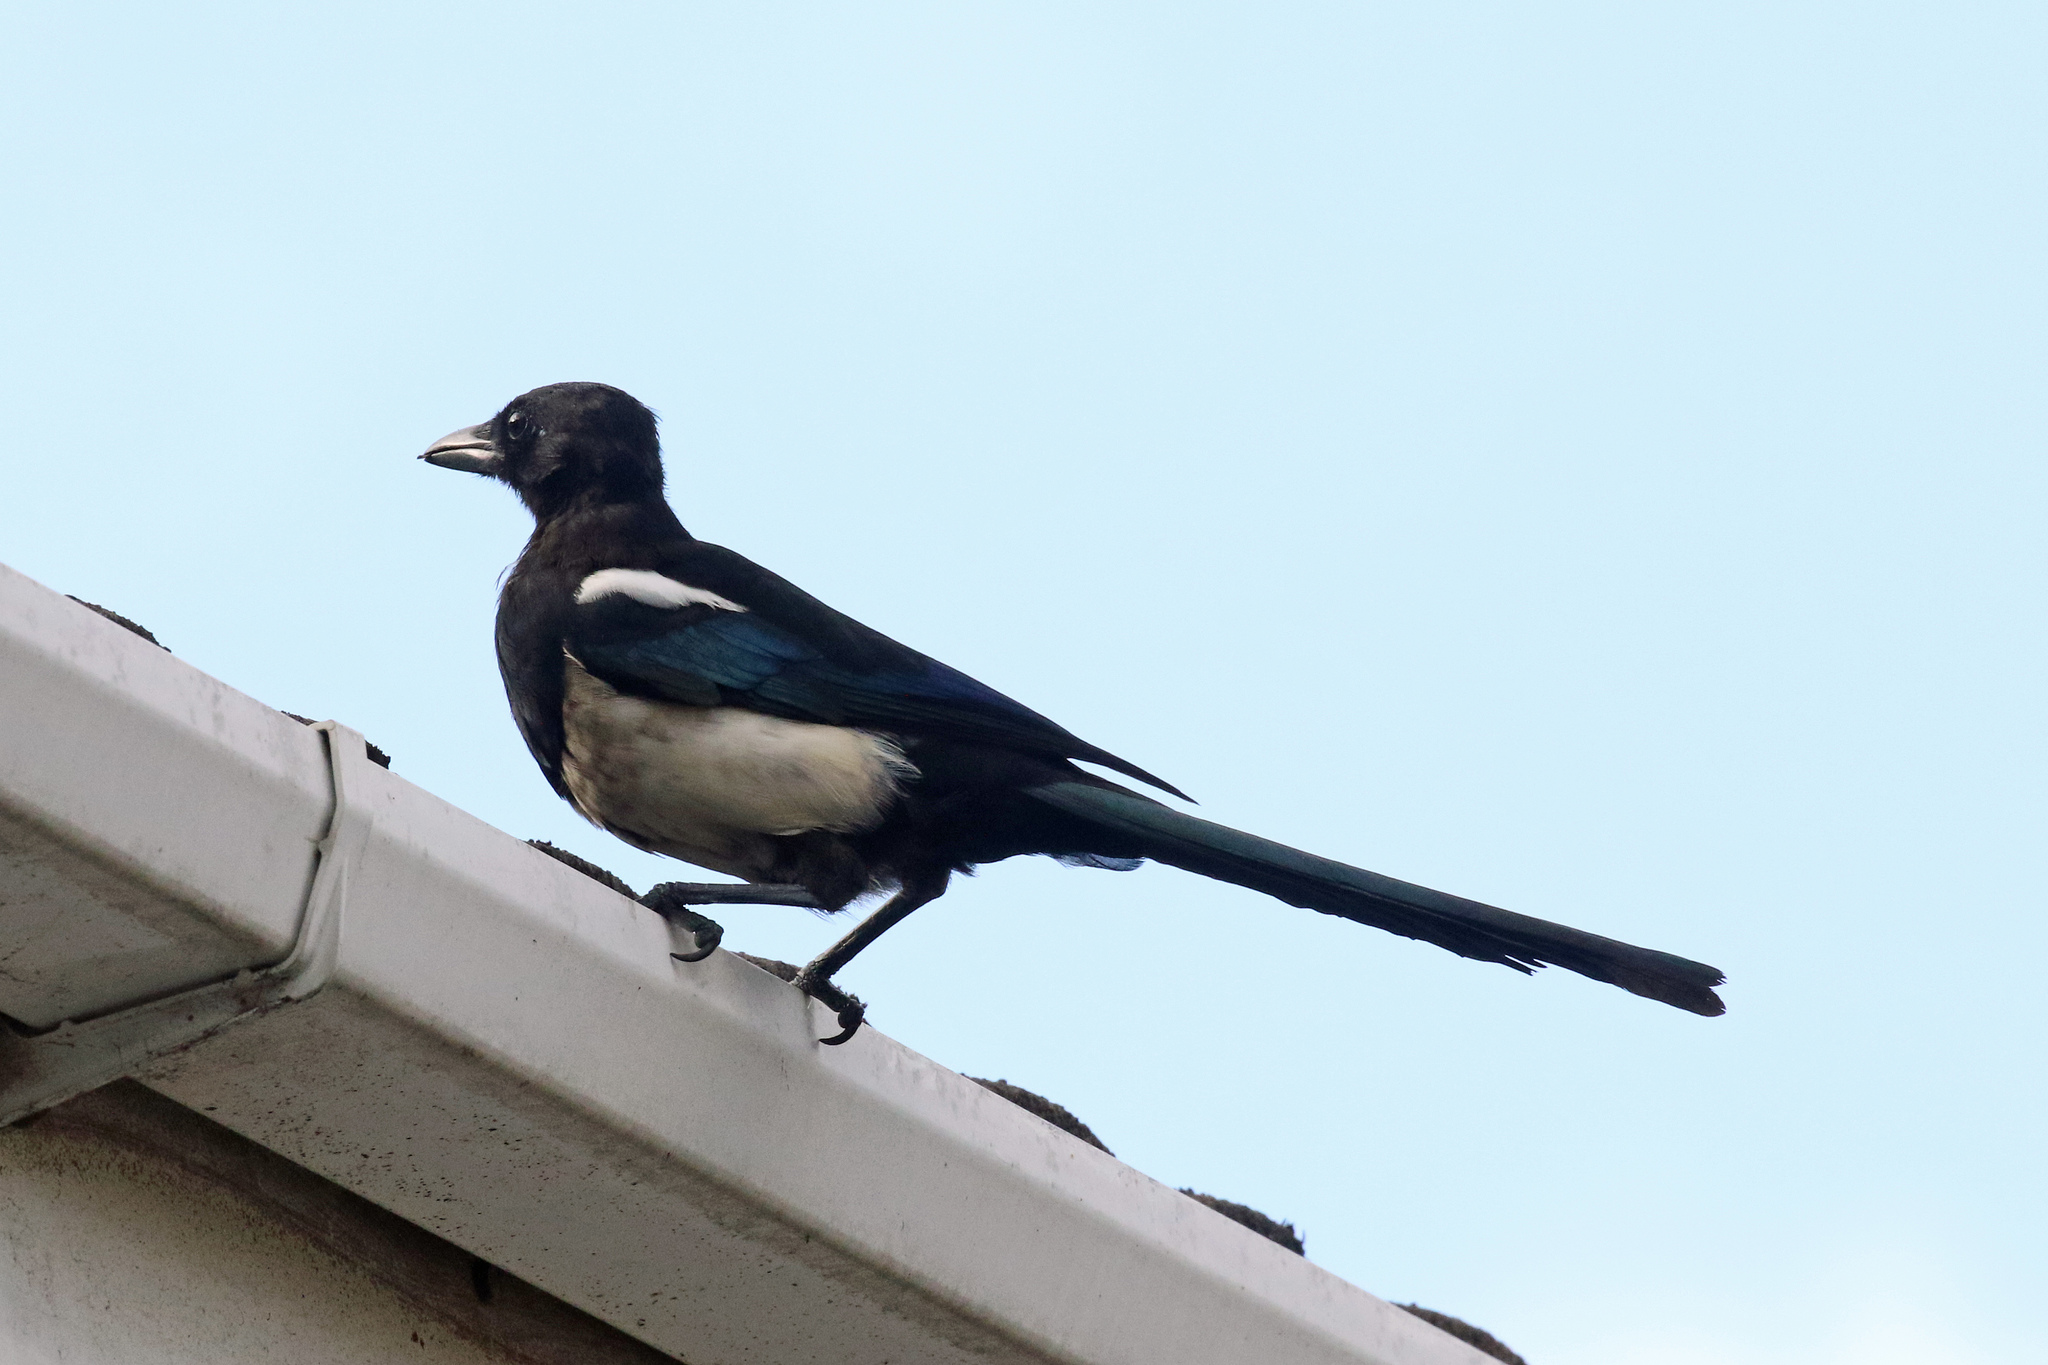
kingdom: Animalia
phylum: Chordata
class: Aves
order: Passeriformes
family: Corvidae
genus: Pica
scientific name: Pica pica
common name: Eurasian magpie
